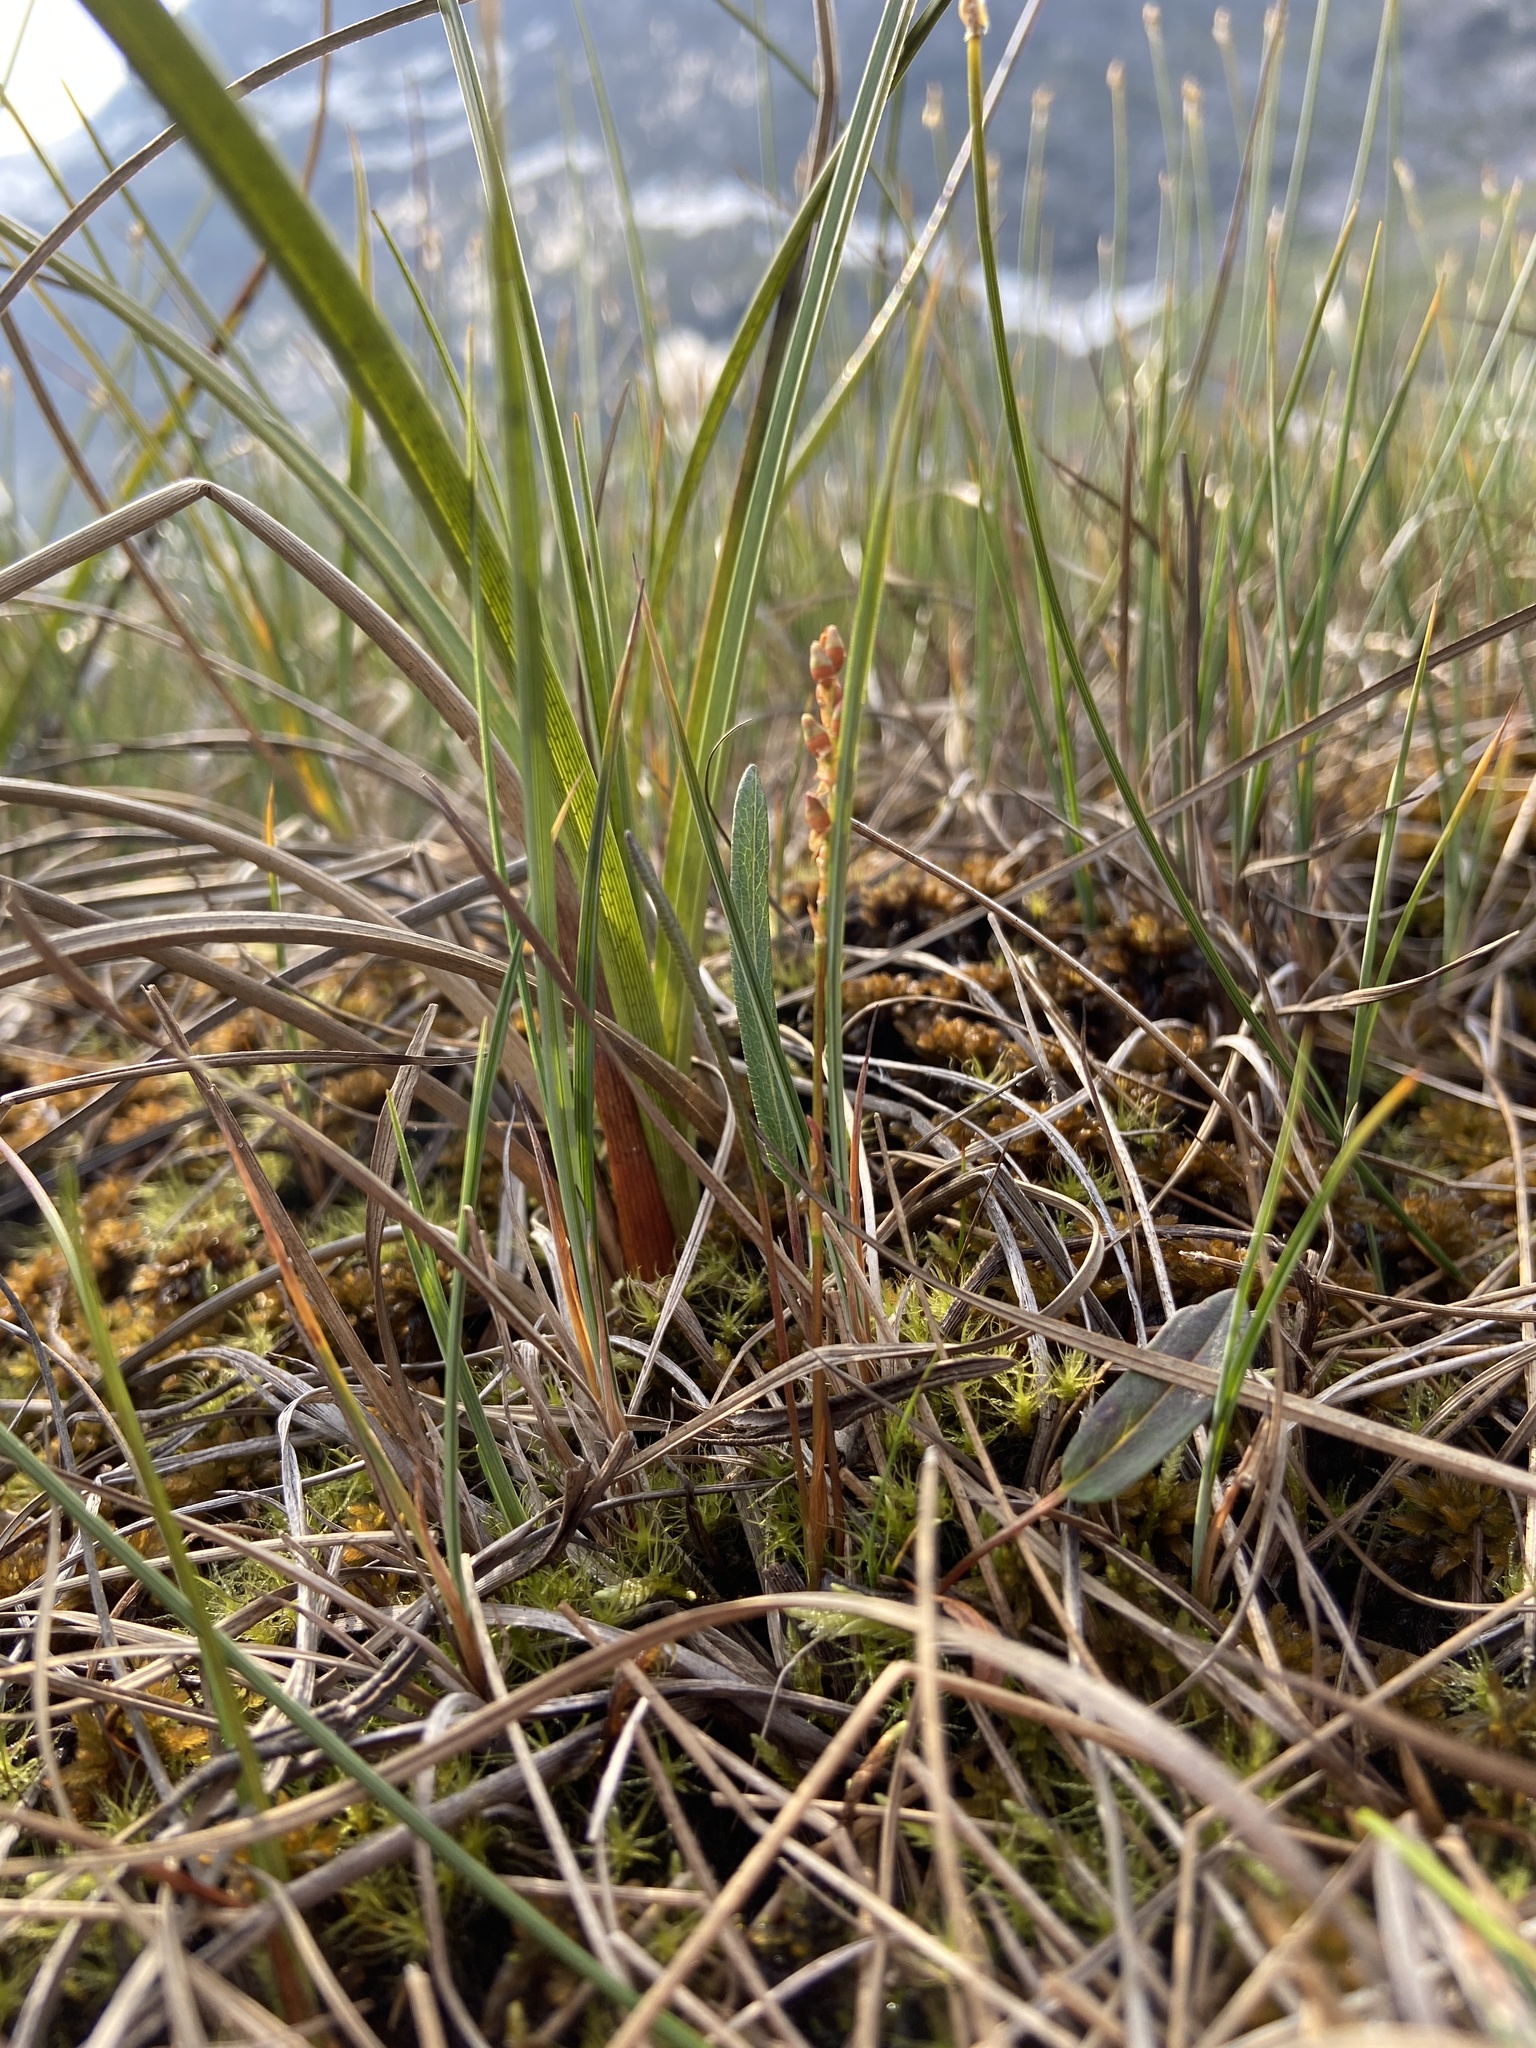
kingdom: Plantae
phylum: Tracheophyta
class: Magnoliopsida
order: Caryophyllales
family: Polygonaceae
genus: Bistorta
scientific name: Bistorta vivipara
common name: Alpine bistort
